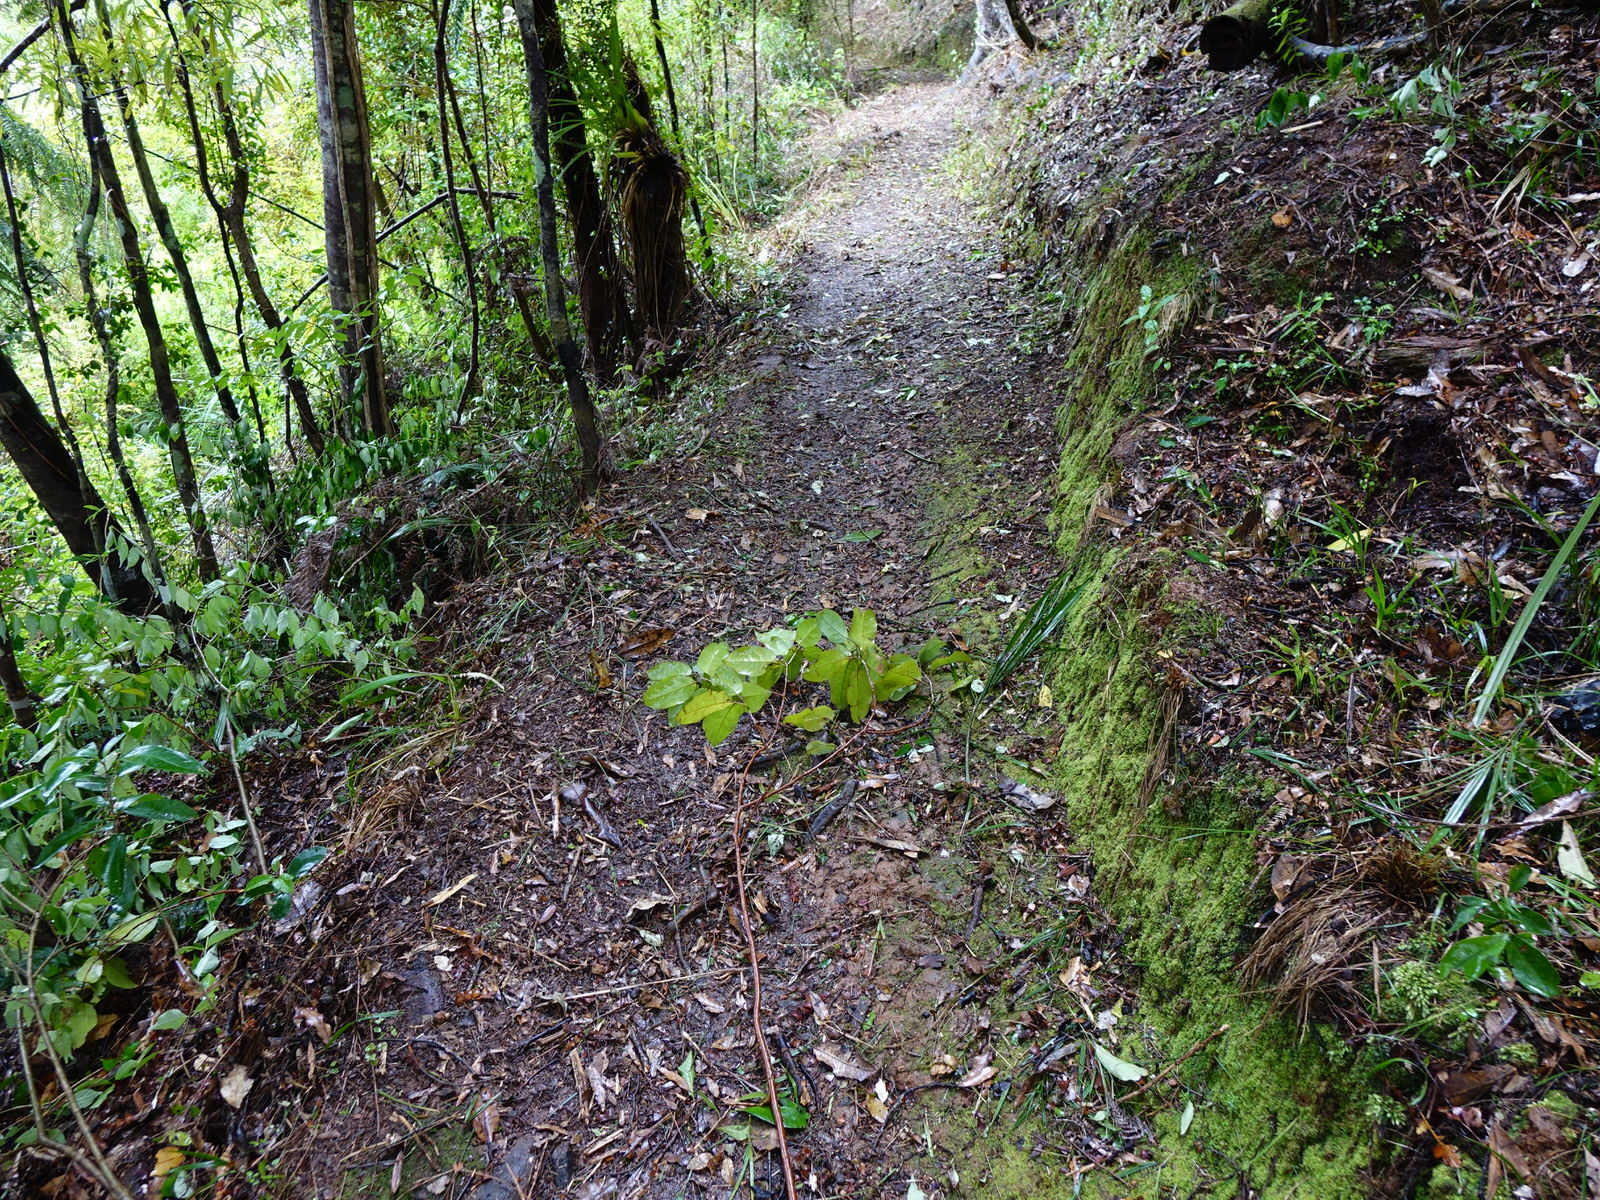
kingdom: Plantae
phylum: Tracheophyta
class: Magnoliopsida
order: Laurales
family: Lauraceae
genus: Litsea
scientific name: Litsea calicaris
